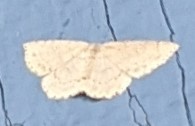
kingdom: Animalia
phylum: Arthropoda
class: Insecta
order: Lepidoptera
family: Geometridae
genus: Cyclophora
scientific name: Cyclophora pendulinaria
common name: Sweet fern geometer
